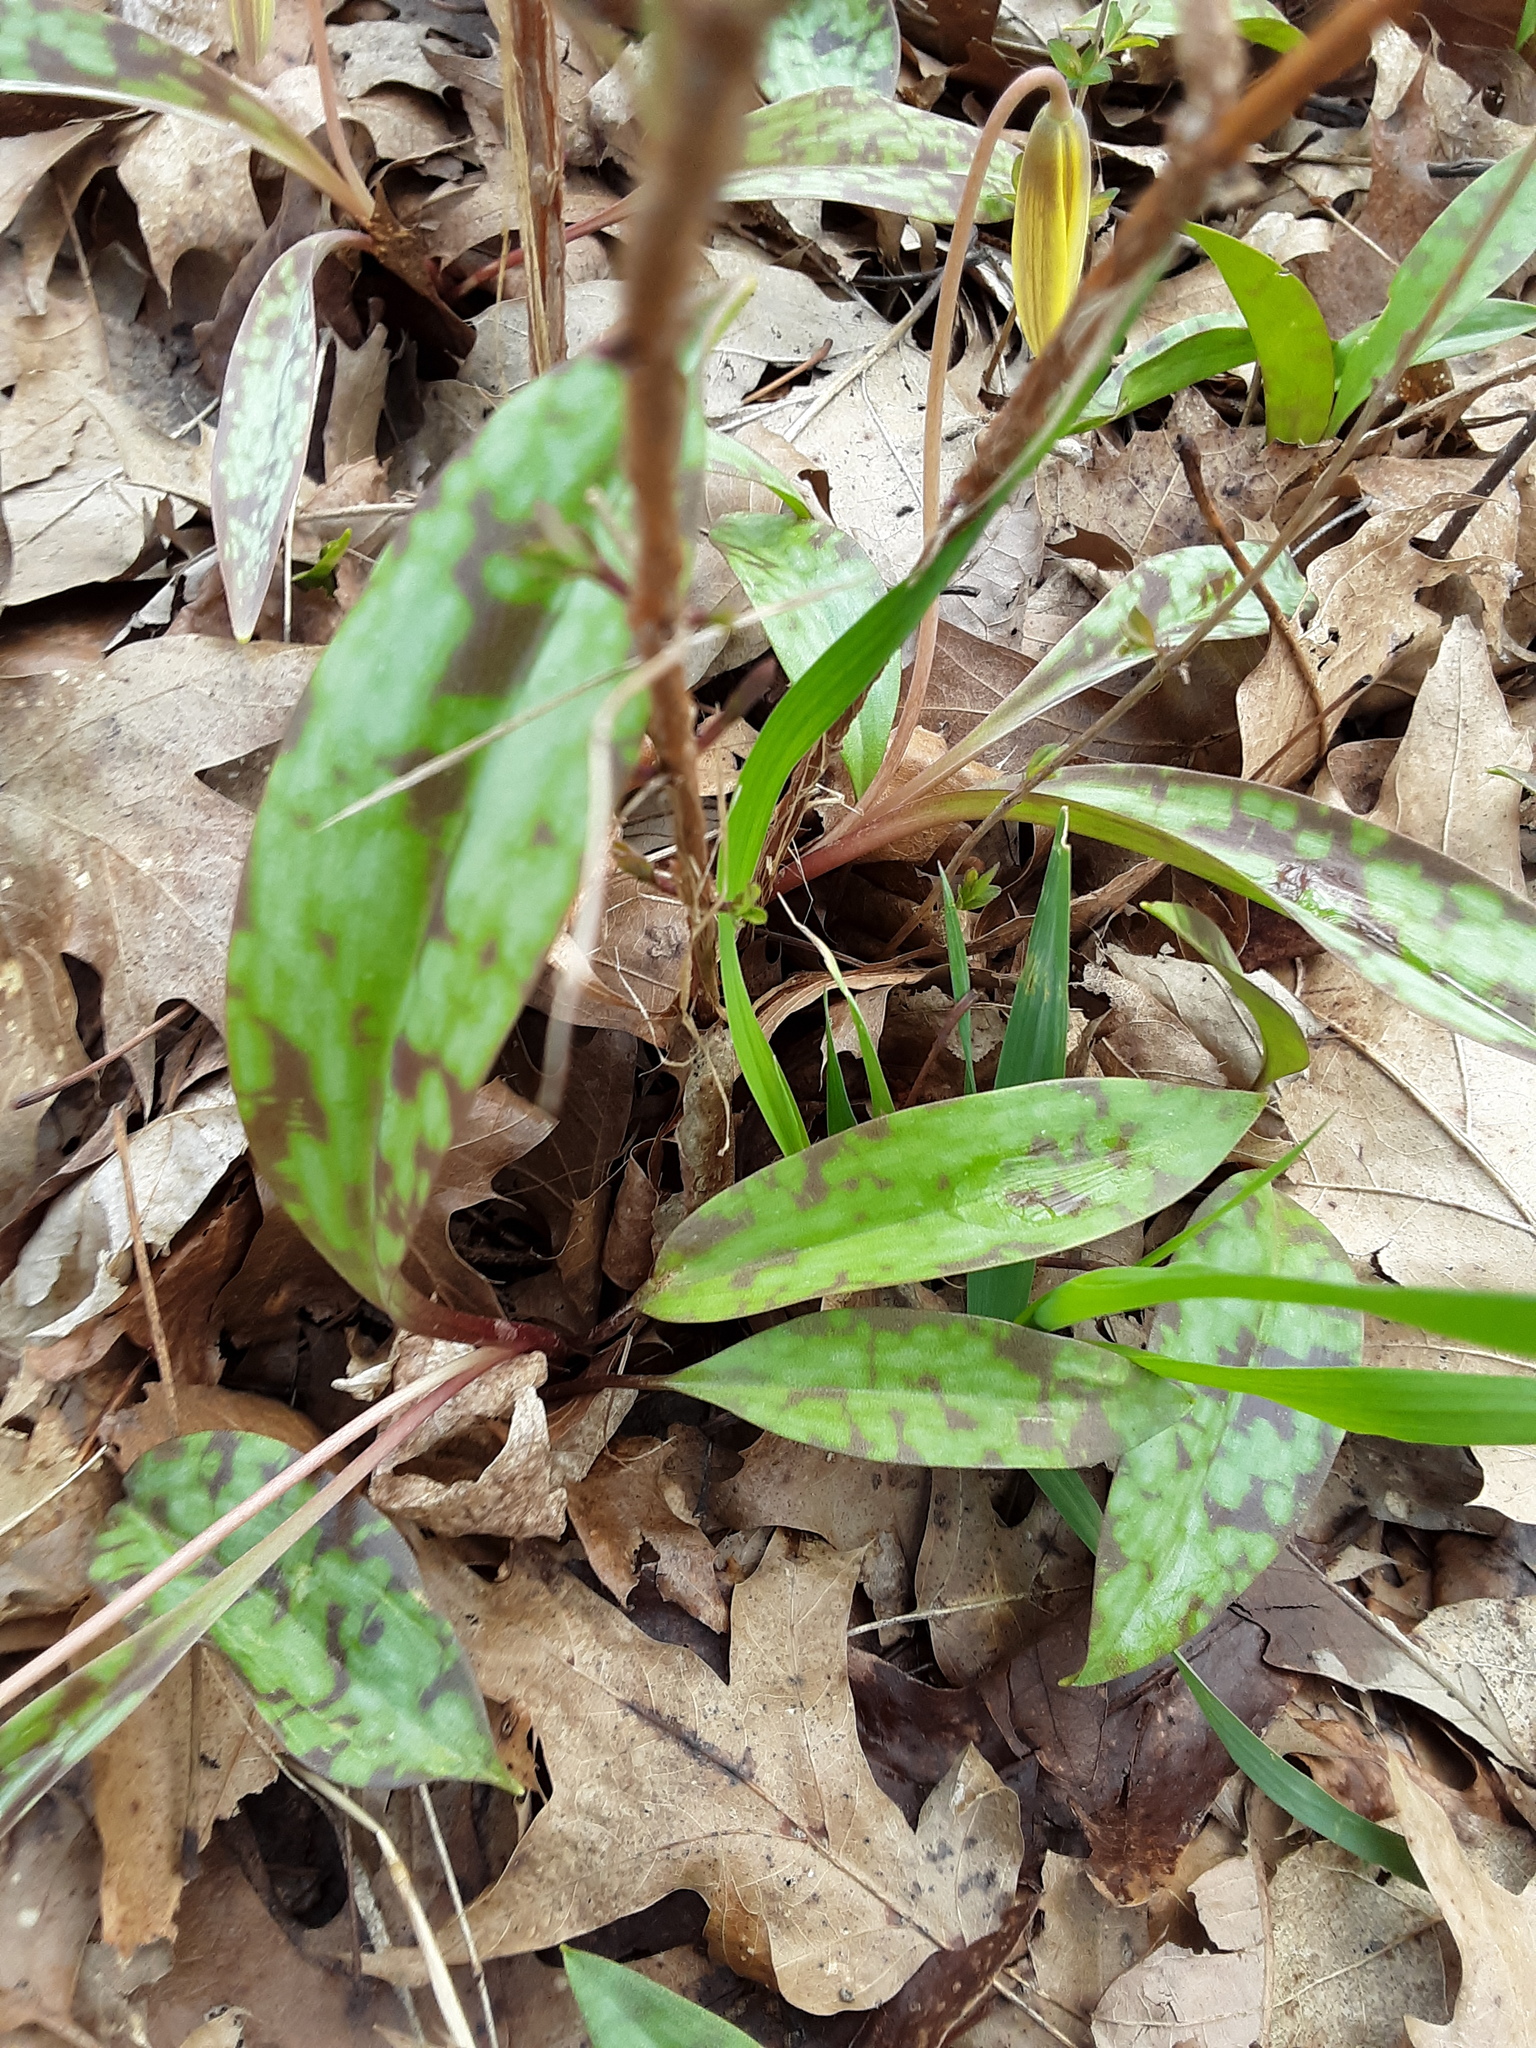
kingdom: Plantae
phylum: Tracheophyta
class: Liliopsida
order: Liliales
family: Liliaceae
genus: Erythronium
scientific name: Erythronium americanum
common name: Yellow adder's-tongue
